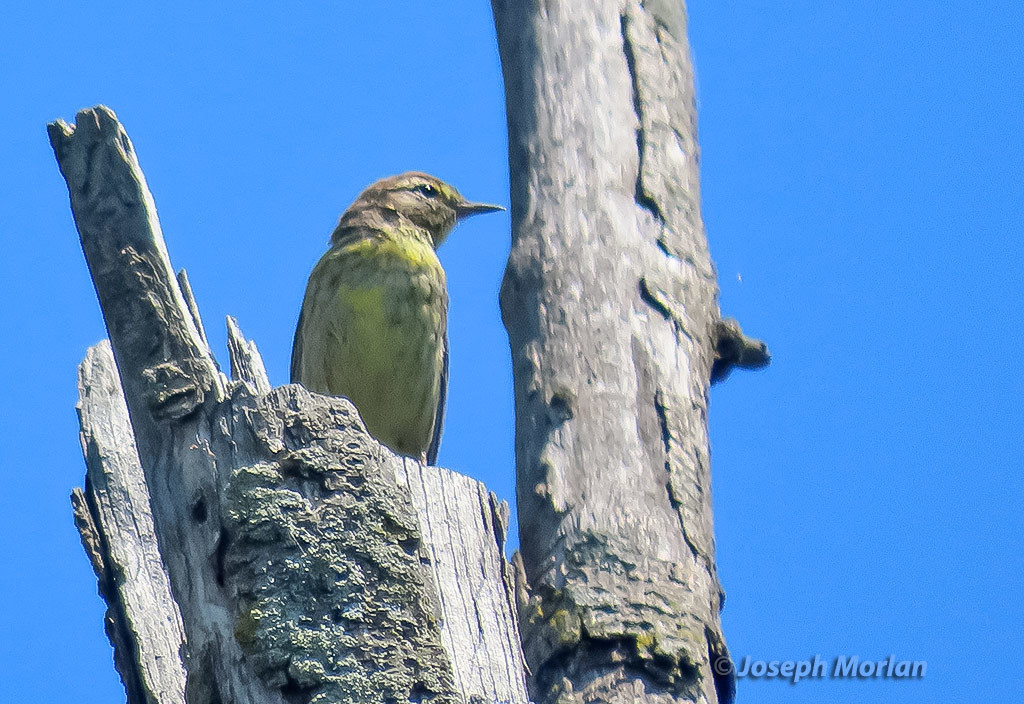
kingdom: Animalia
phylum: Chordata
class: Aves
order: Passeriformes
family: Parulidae
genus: Setophaga
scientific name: Setophaga palmarum
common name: Palm warbler
